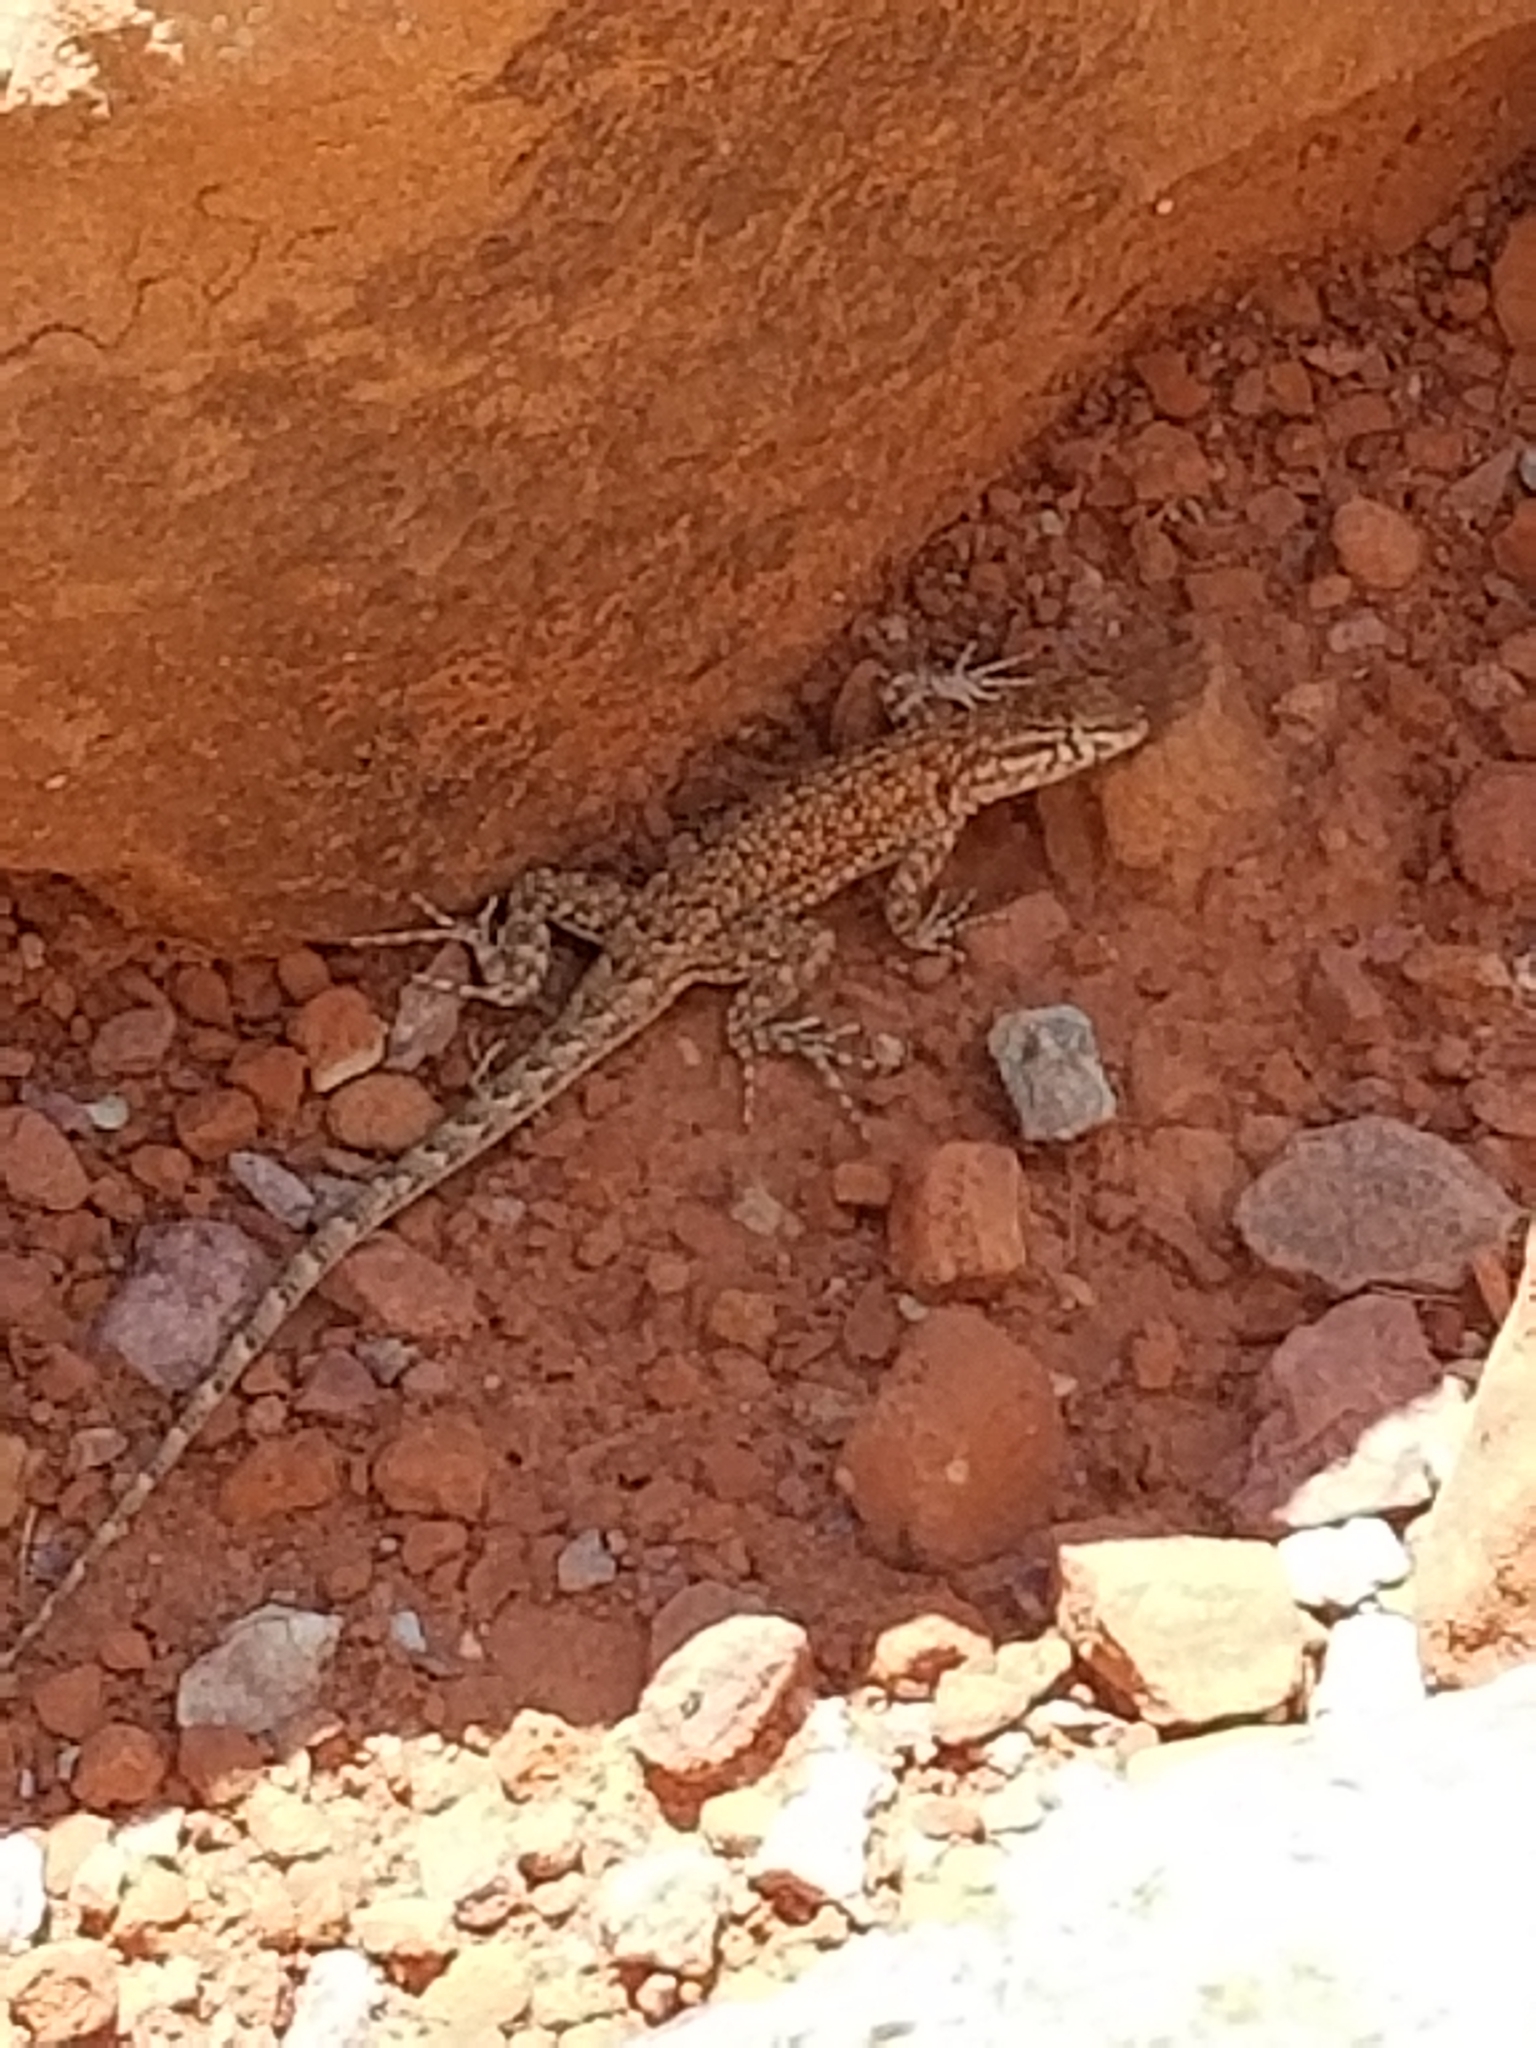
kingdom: Animalia
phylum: Chordata
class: Squamata
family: Phrynosomatidae
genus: Uta
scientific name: Uta stansburiana
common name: Side-blotched lizard
